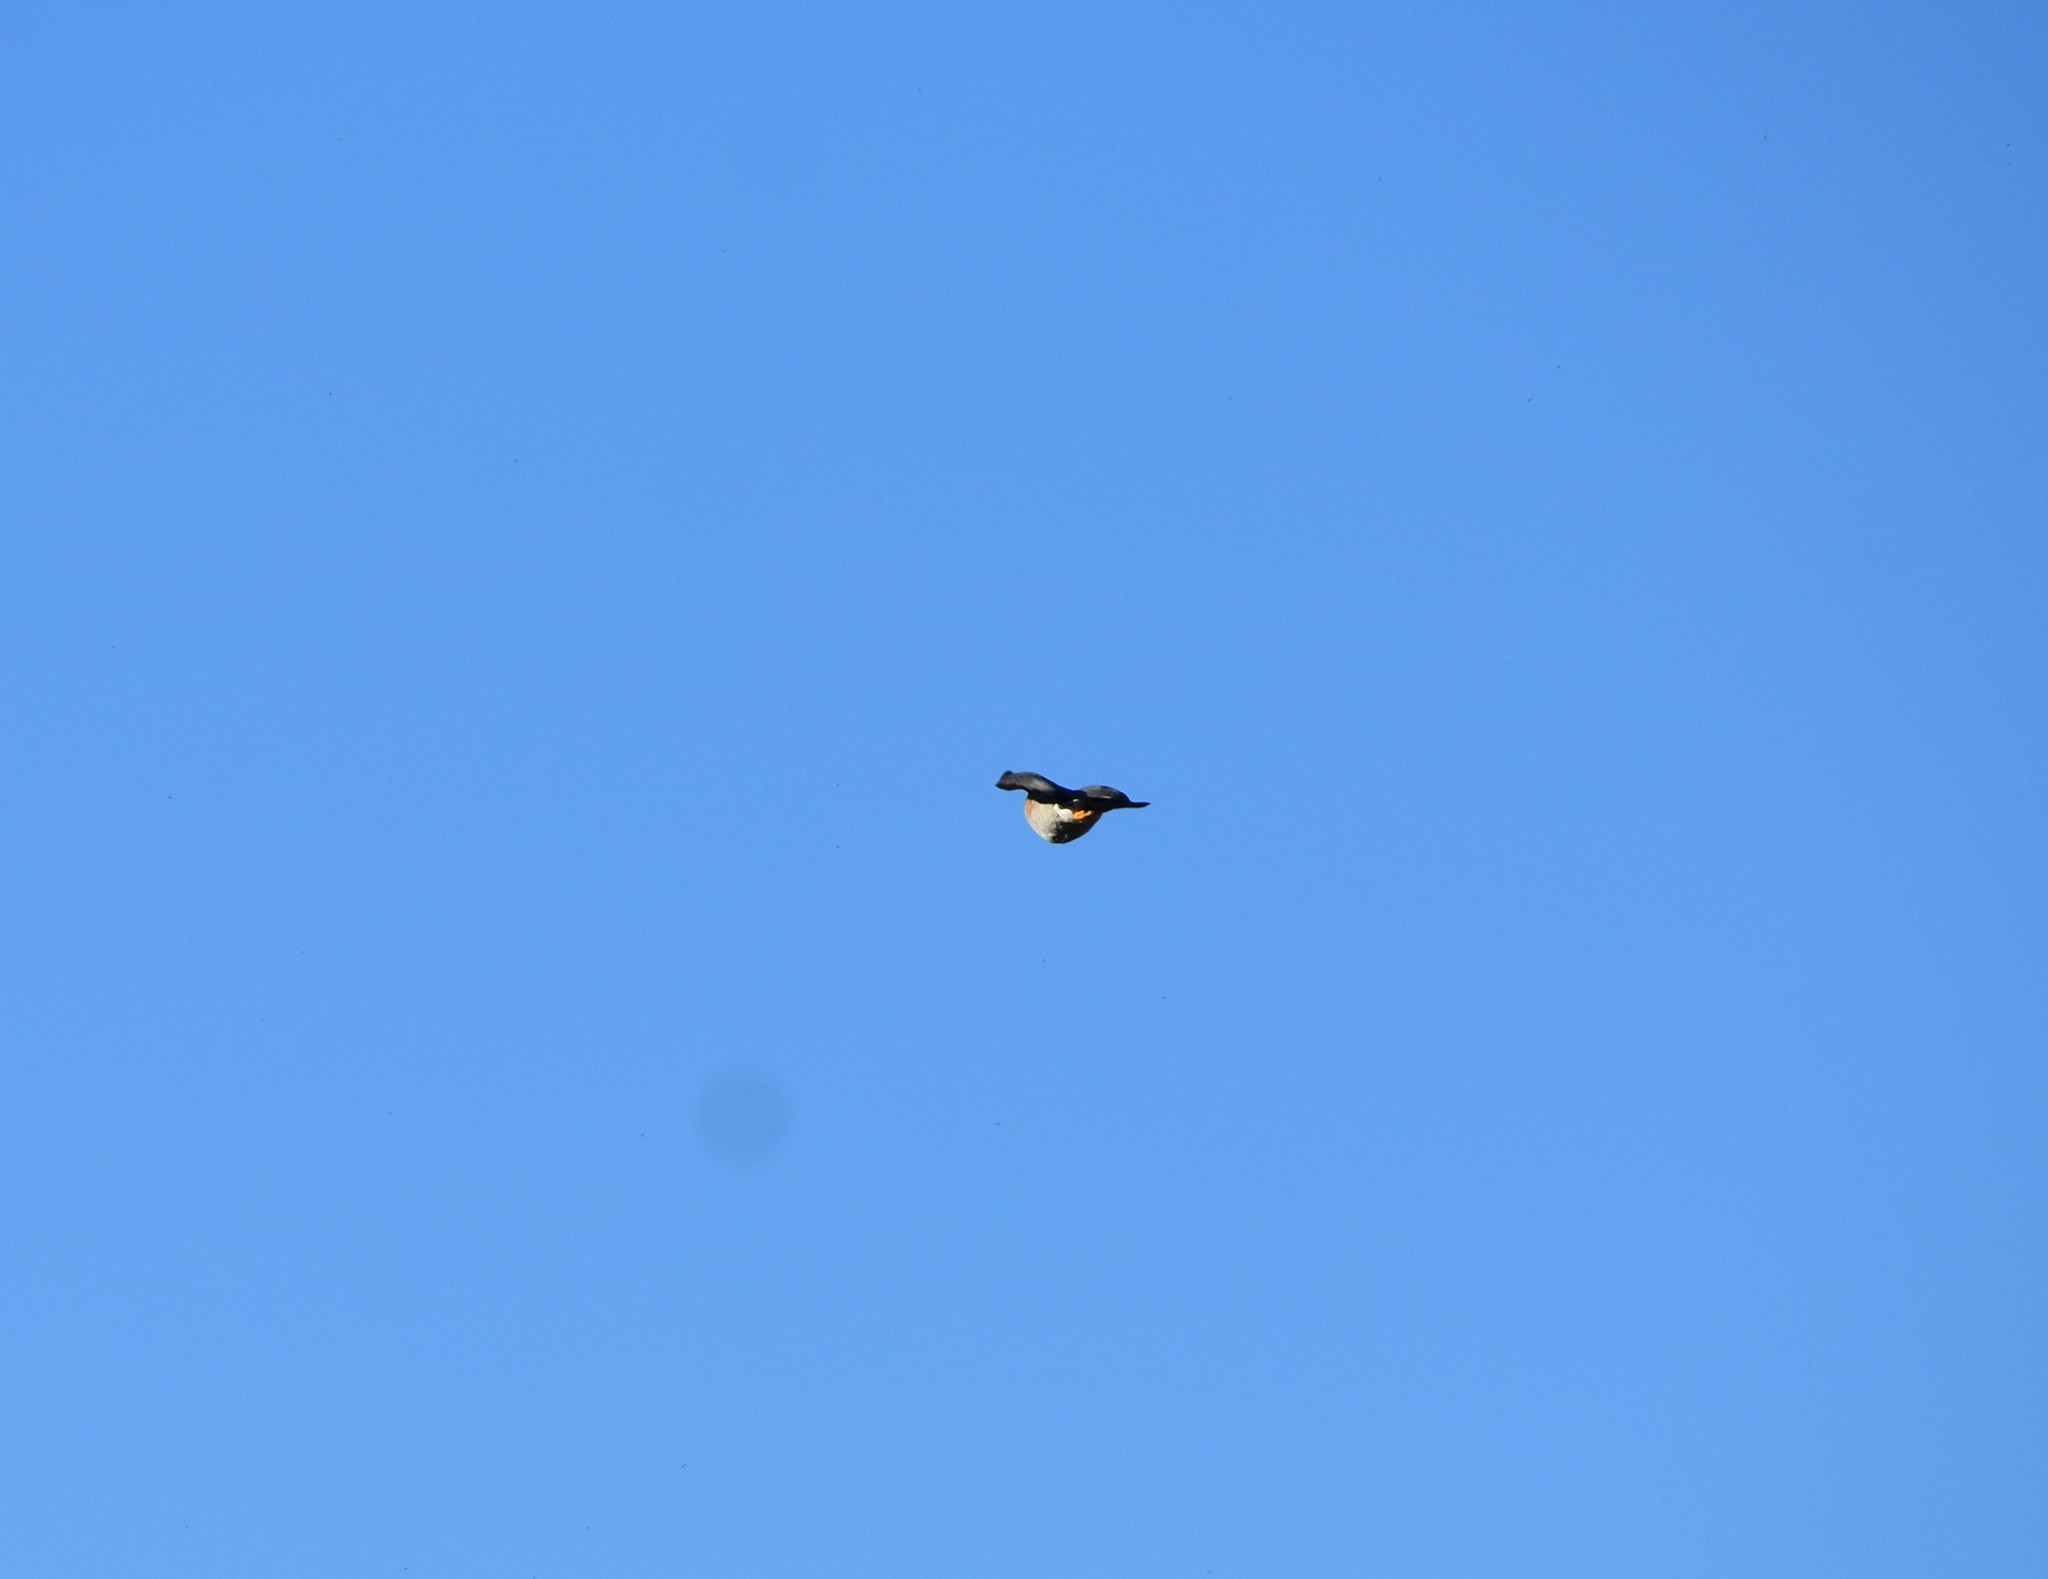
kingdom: Animalia
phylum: Chordata
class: Aves
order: Accipitriformes
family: Accipitridae
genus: Accipiter
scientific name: Accipiter minullus
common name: Little sparrowhawk
